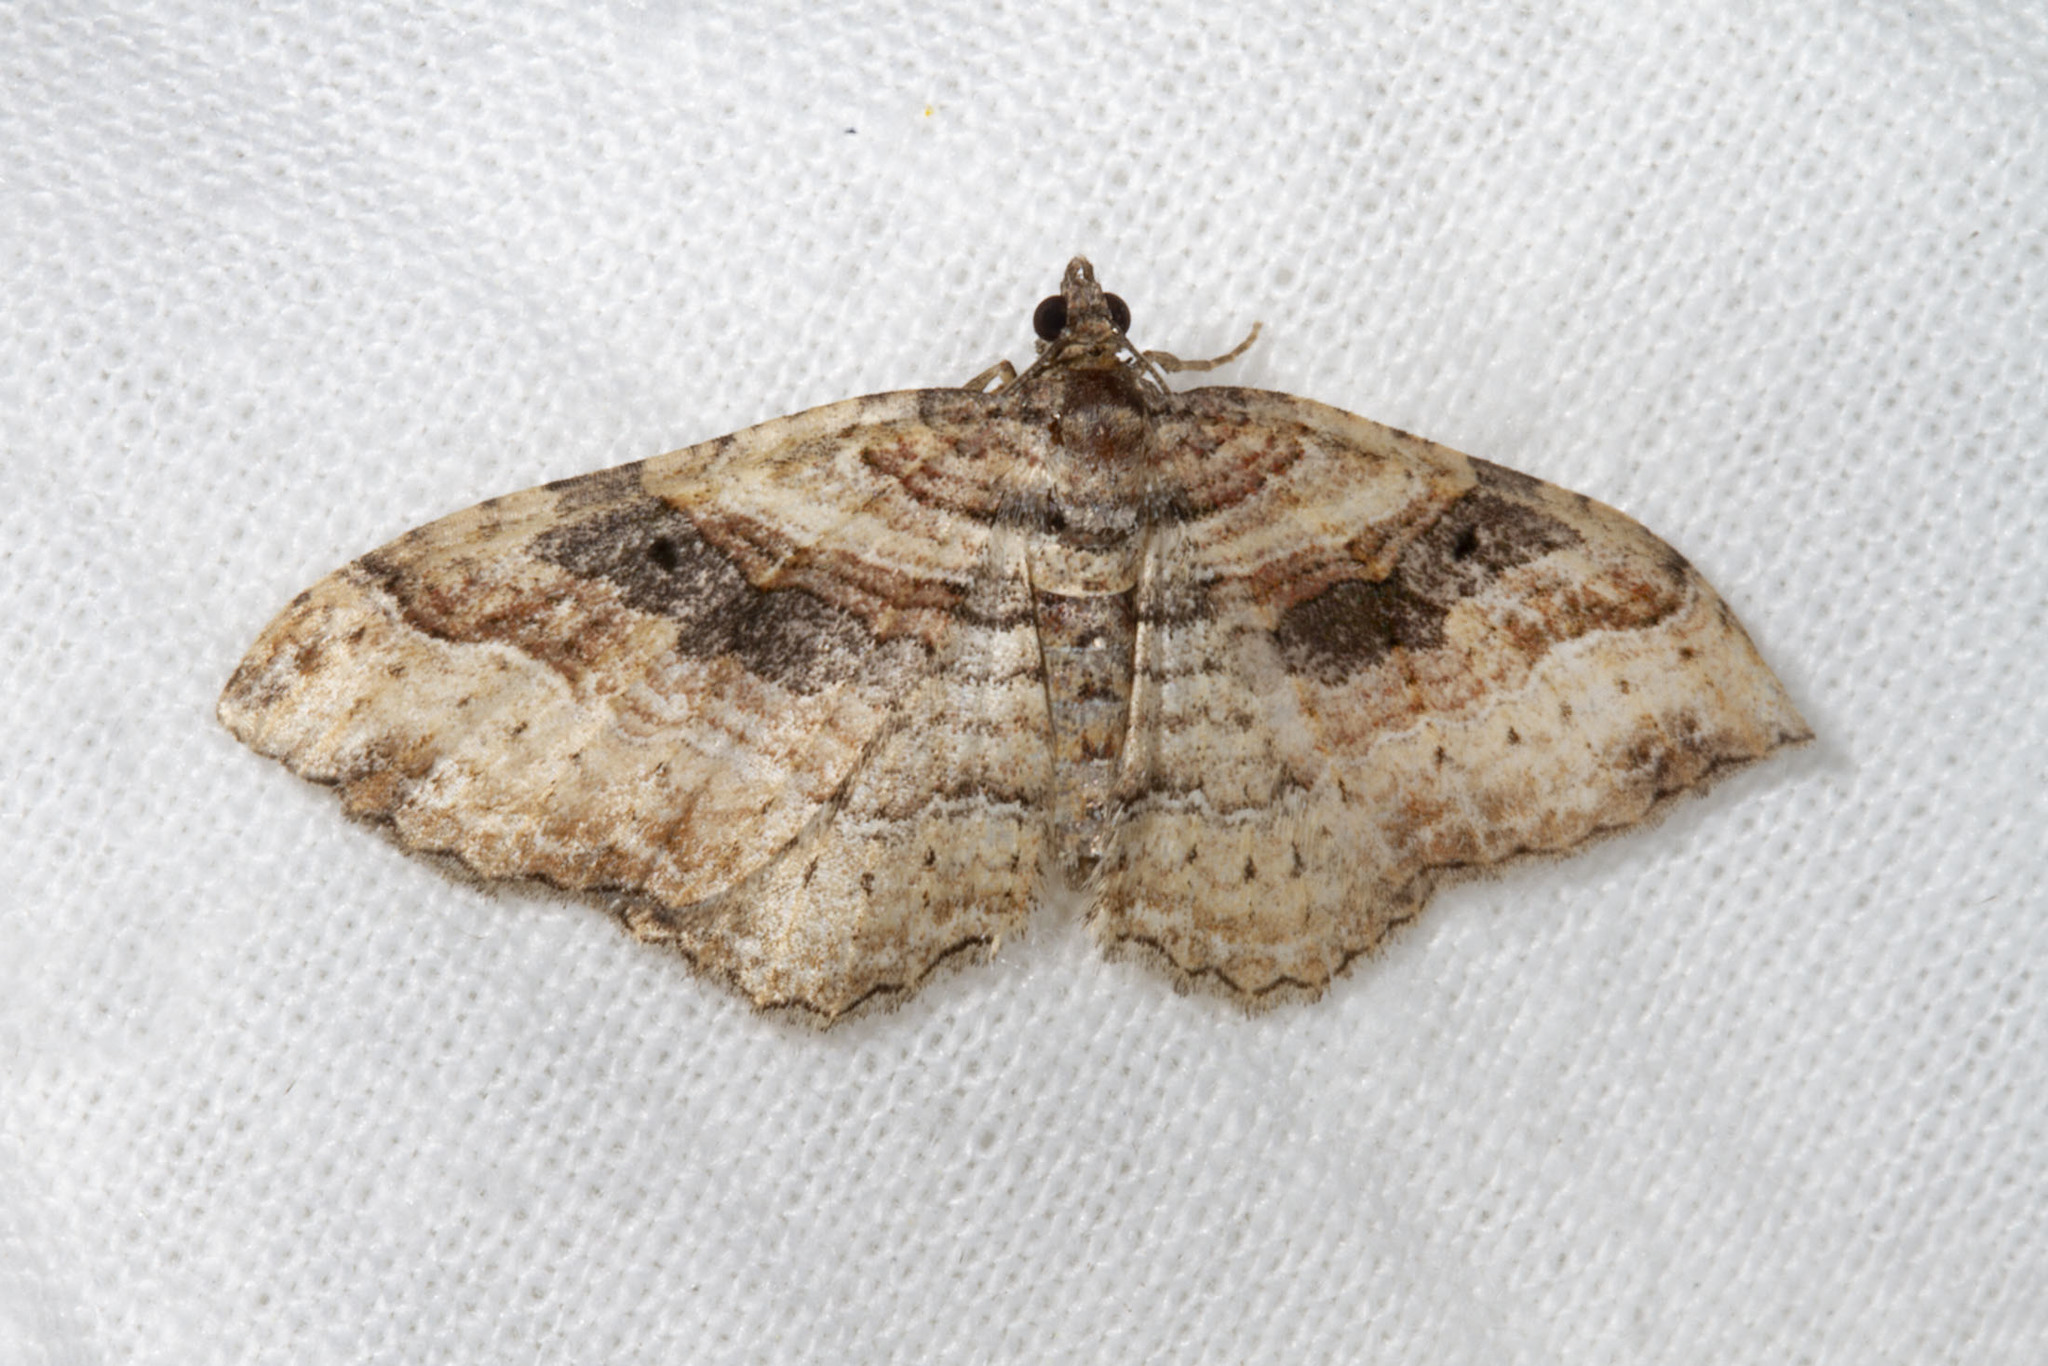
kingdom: Animalia
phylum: Arthropoda
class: Insecta
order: Lepidoptera
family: Geometridae
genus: Costaconvexa
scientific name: Costaconvexa centrostrigaria
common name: Bent-line carpet
